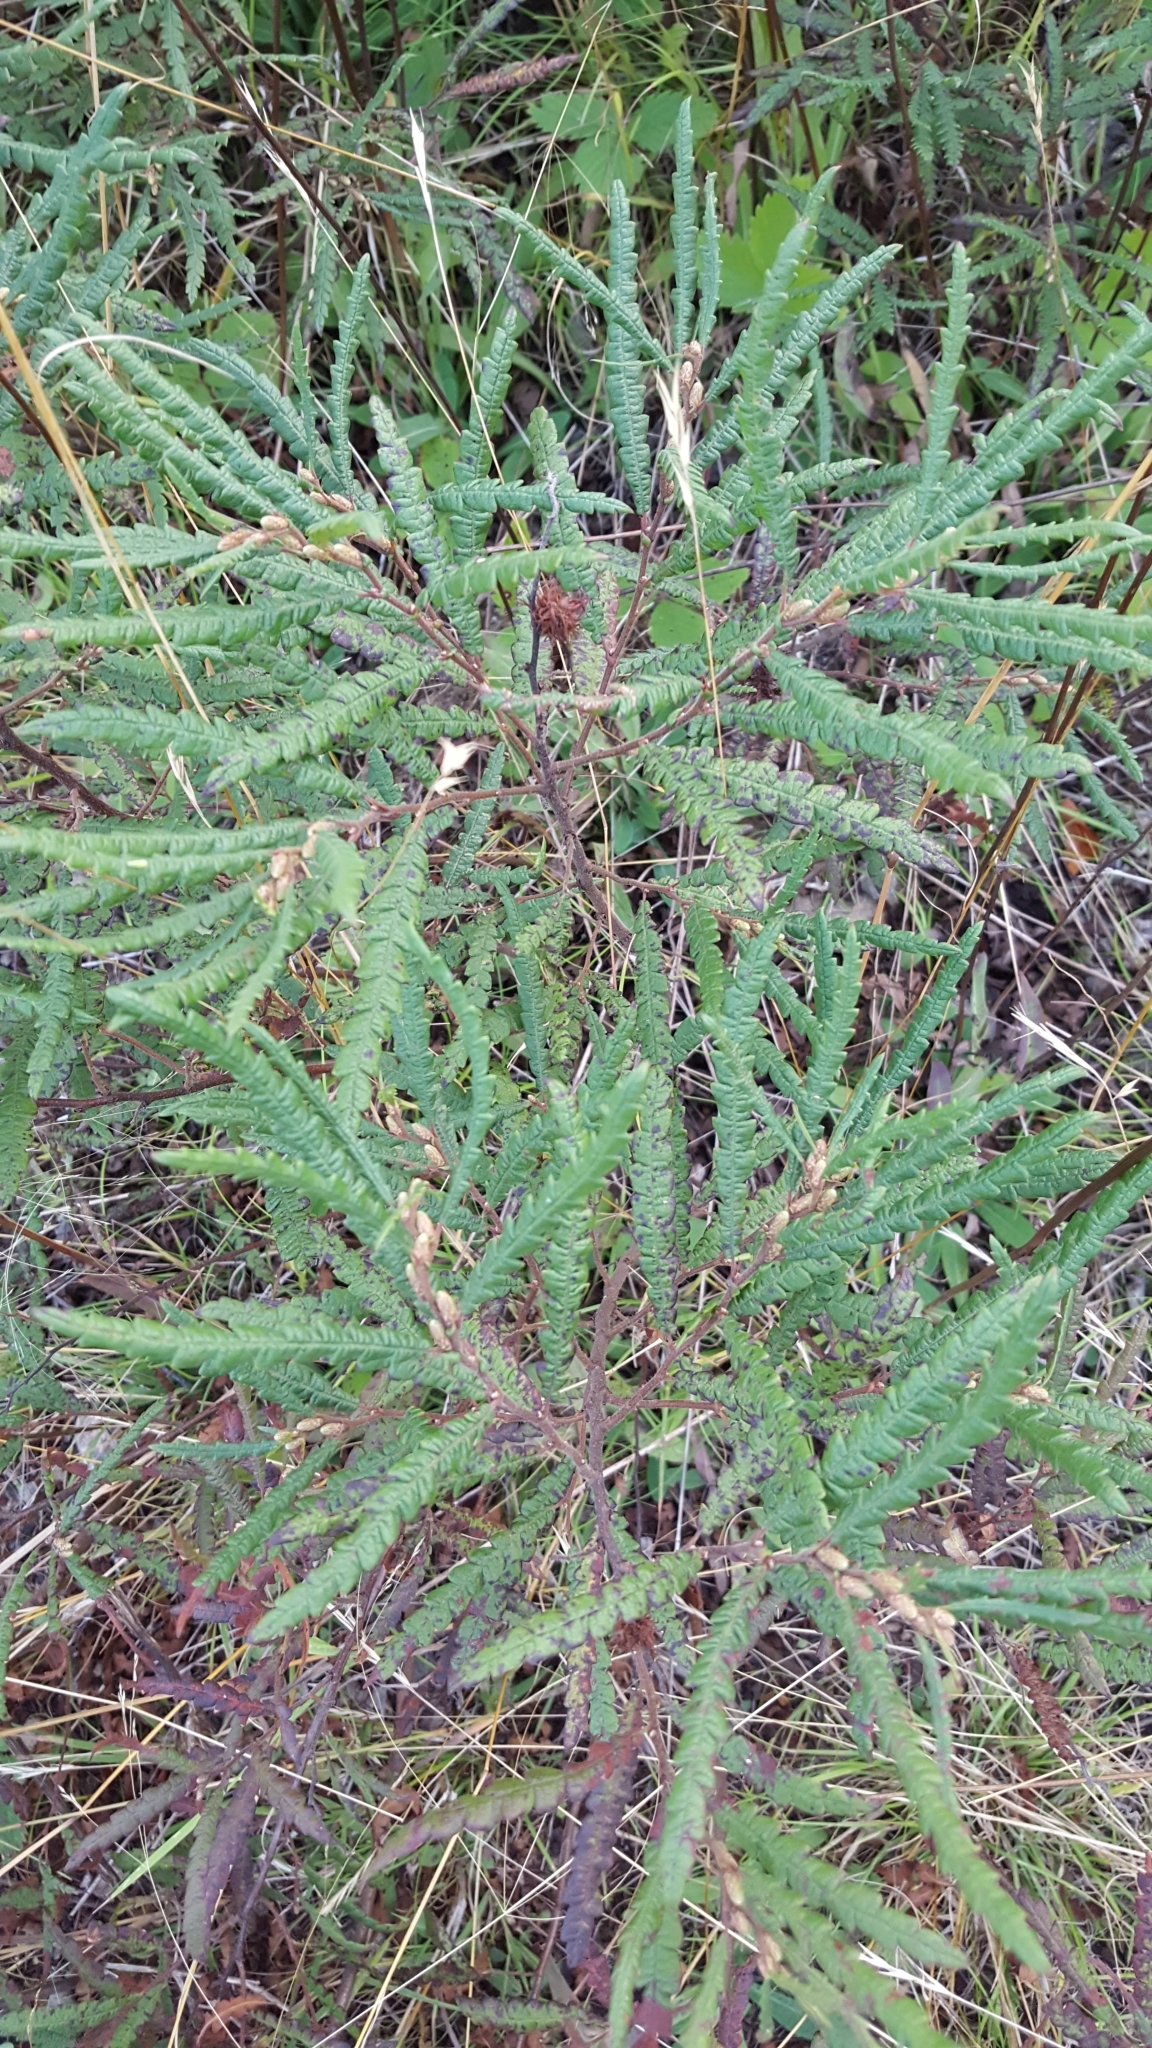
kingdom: Plantae
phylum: Tracheophyta
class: Magnoliopsida
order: Fagales
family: Myricaceae
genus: Comptonia
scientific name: Comptonia peregrina
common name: Sweet-fern
